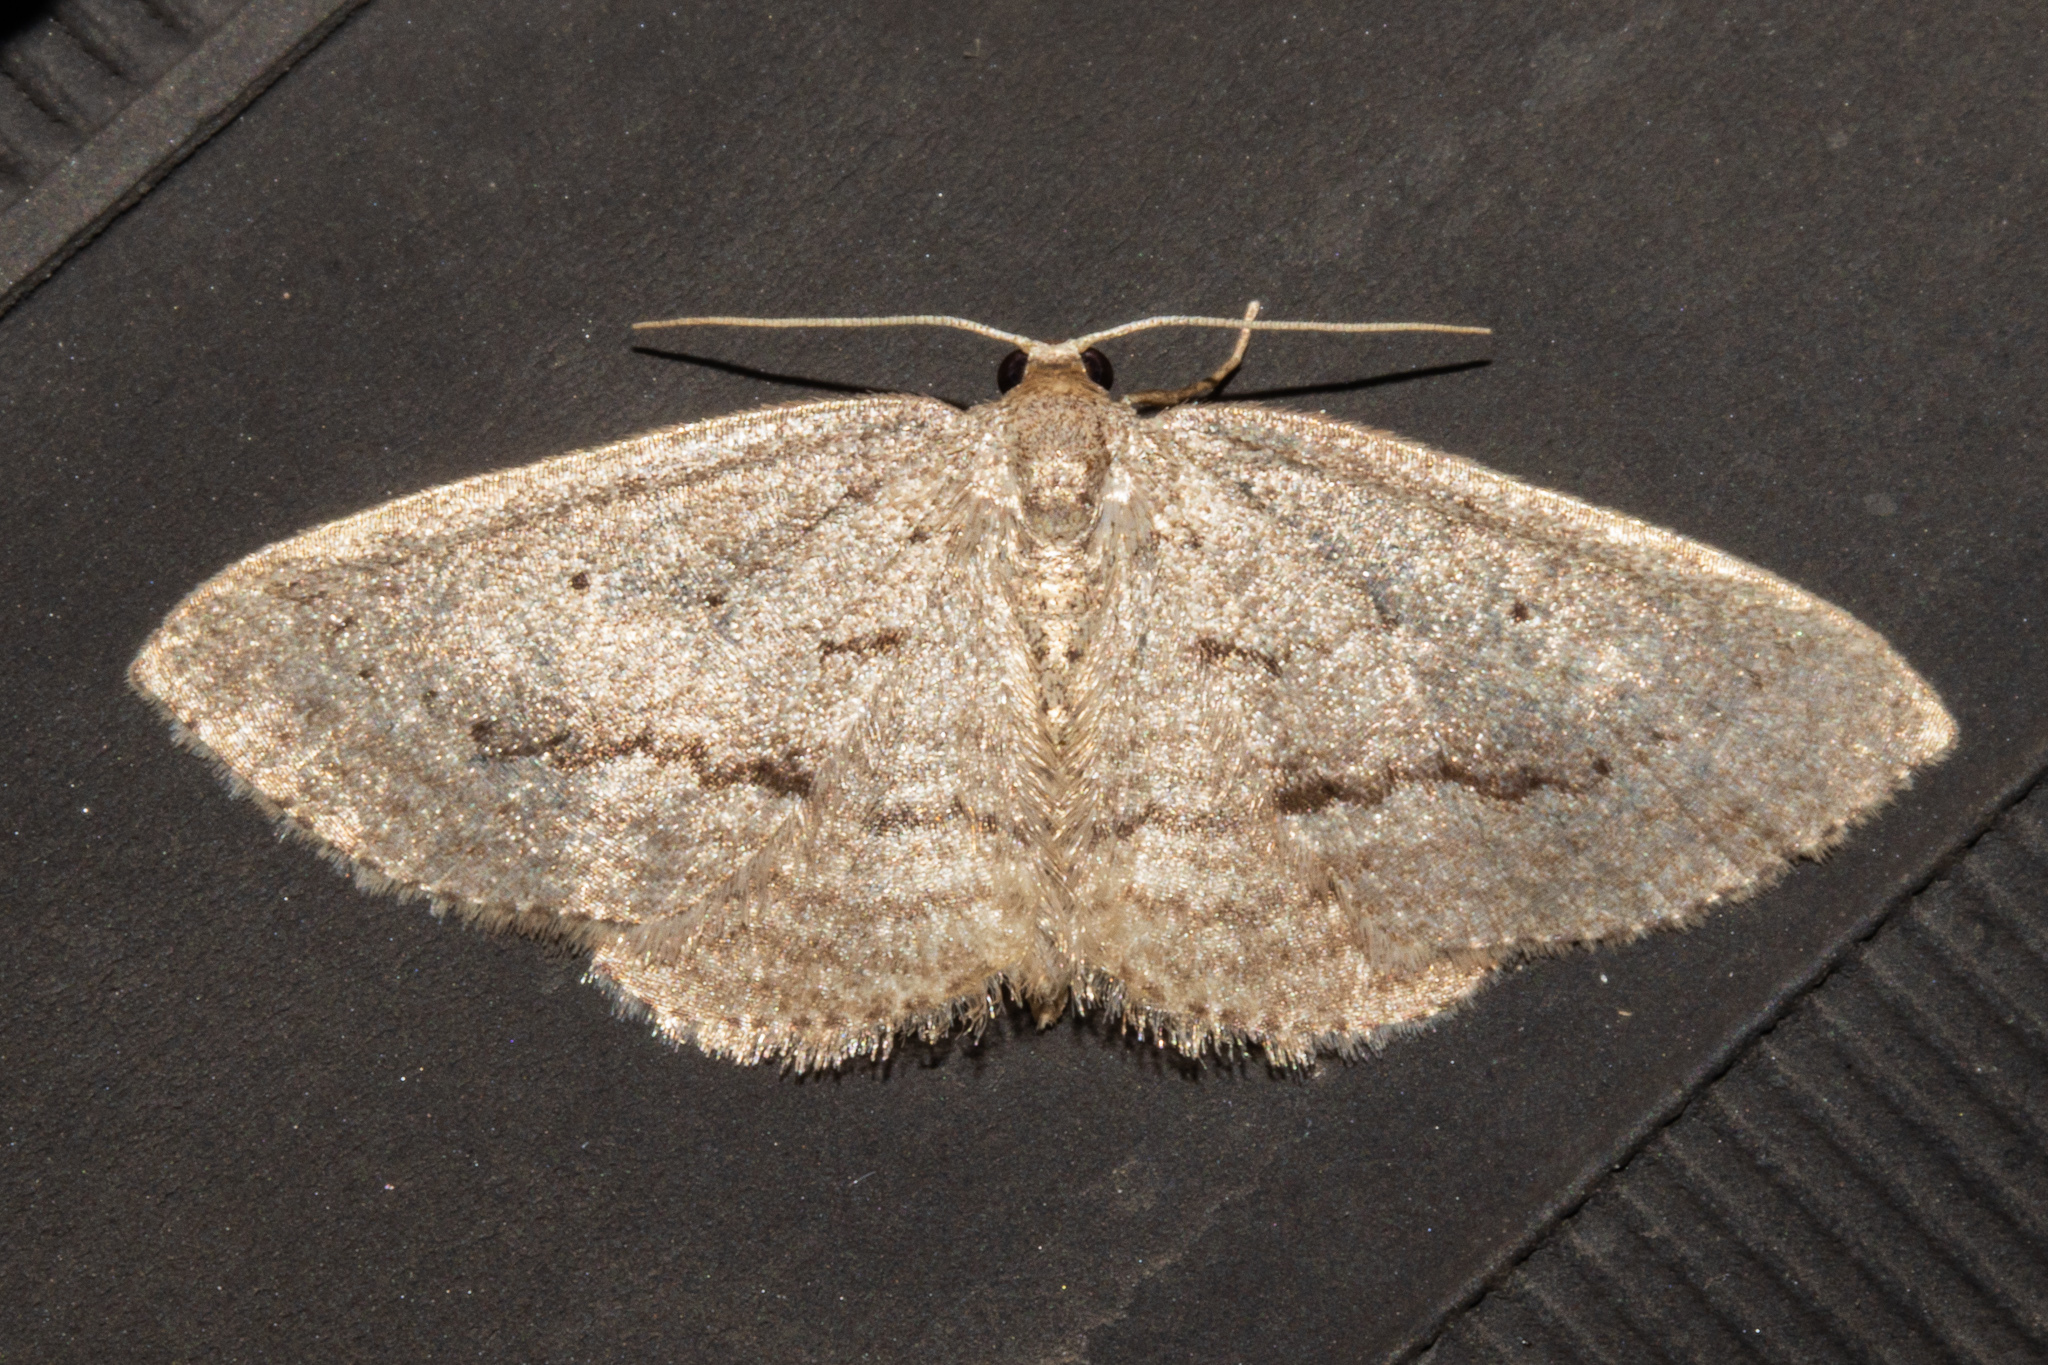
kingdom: Animalia
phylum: Arthropoda
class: Insecta
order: Lepidoptera
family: Geometridae
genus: Poecilasthena
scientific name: Poecilasthena schistaria
